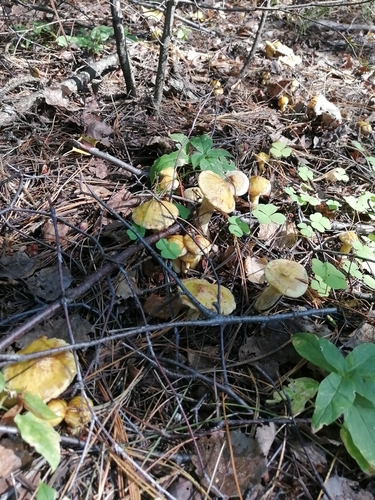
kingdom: Fungi
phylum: Basidiomycota
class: Agaricomycetes
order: Boletales
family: Suillaceae
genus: Suillus
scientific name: Suillus americanus
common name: Chicken fat mushroom
